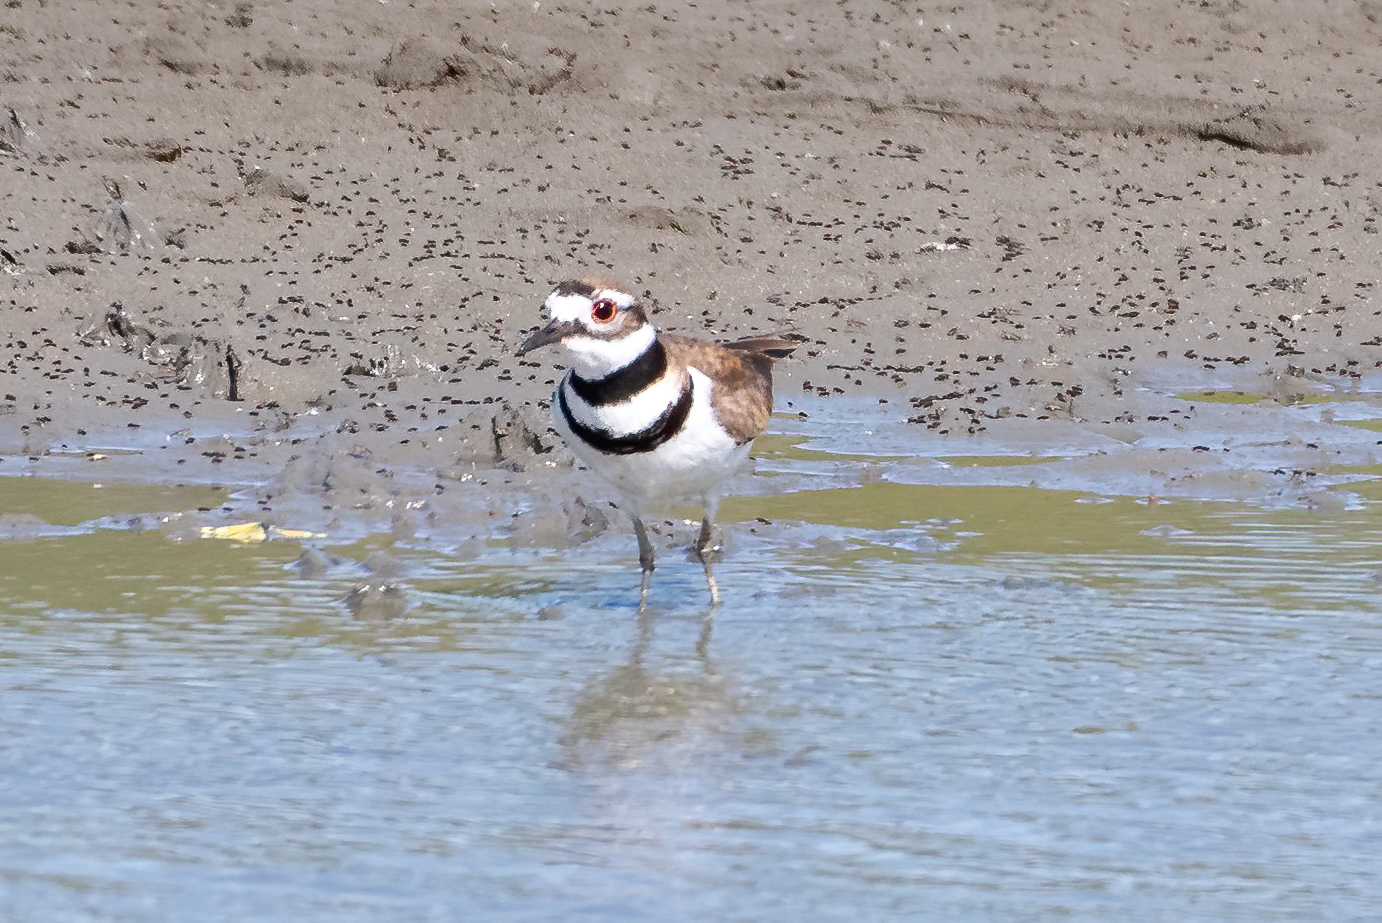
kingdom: Animalia
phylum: Chordata
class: Aves
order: Charadriiformes
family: Charadriidae
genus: Charadrius
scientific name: Charadrius vociferus
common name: Killdeer
